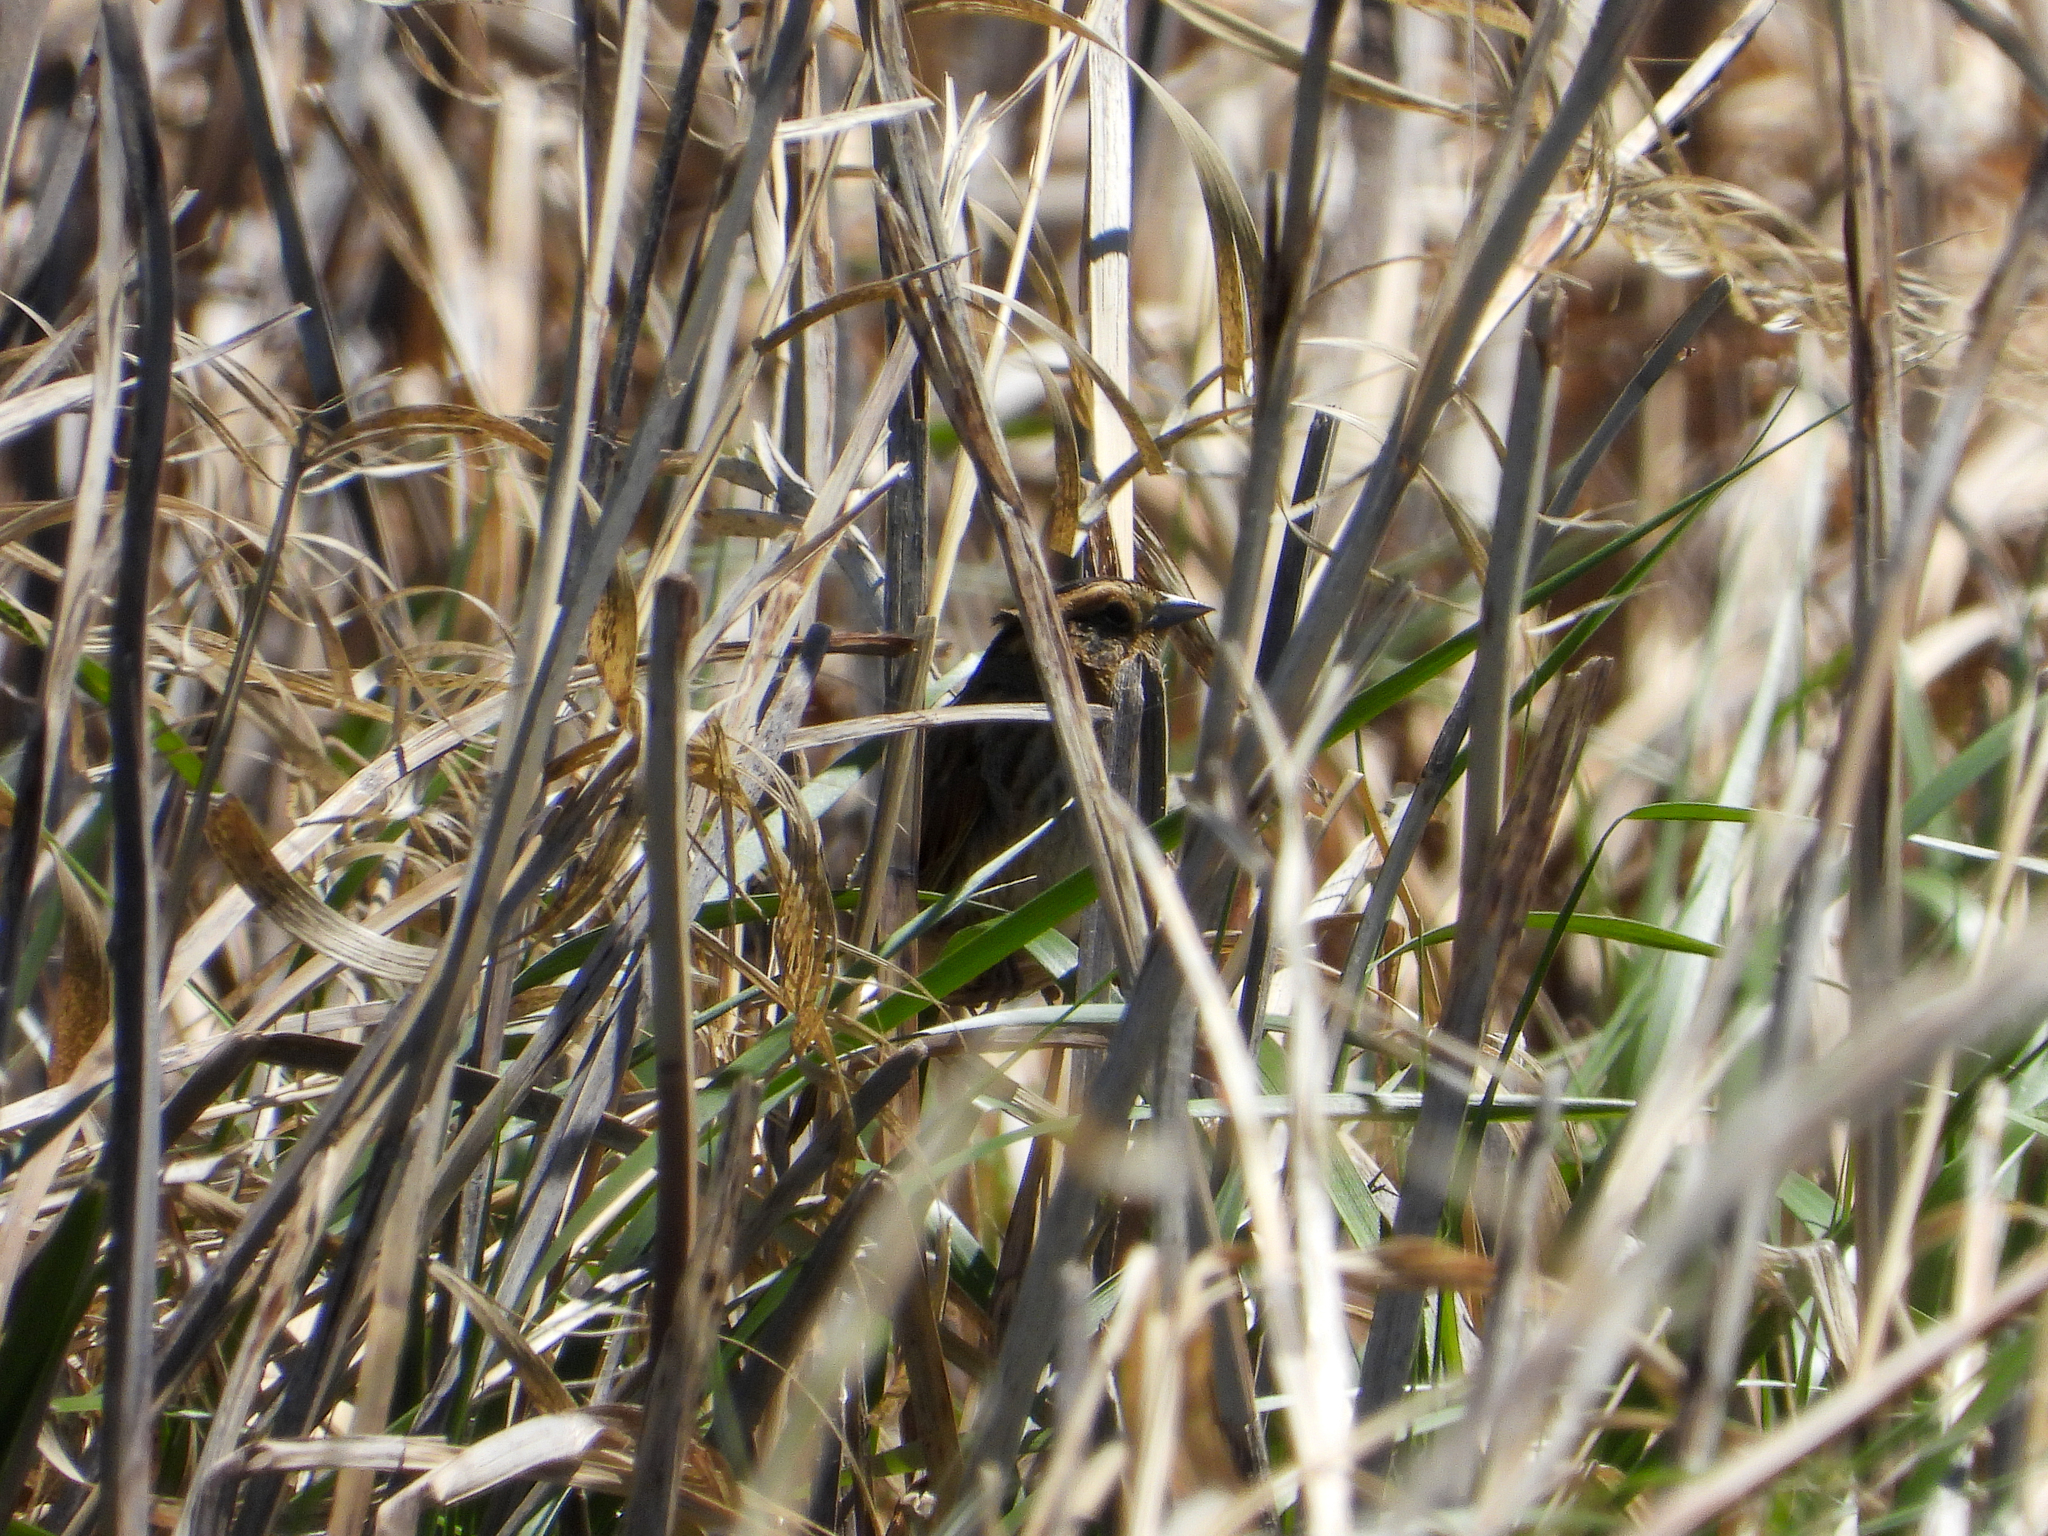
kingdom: Animalia
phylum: Chordata
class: Aves
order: Passeriformes
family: Passerellidae
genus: Ammospiza
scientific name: Ammospiza nelsoni
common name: Nelson's sparrow
